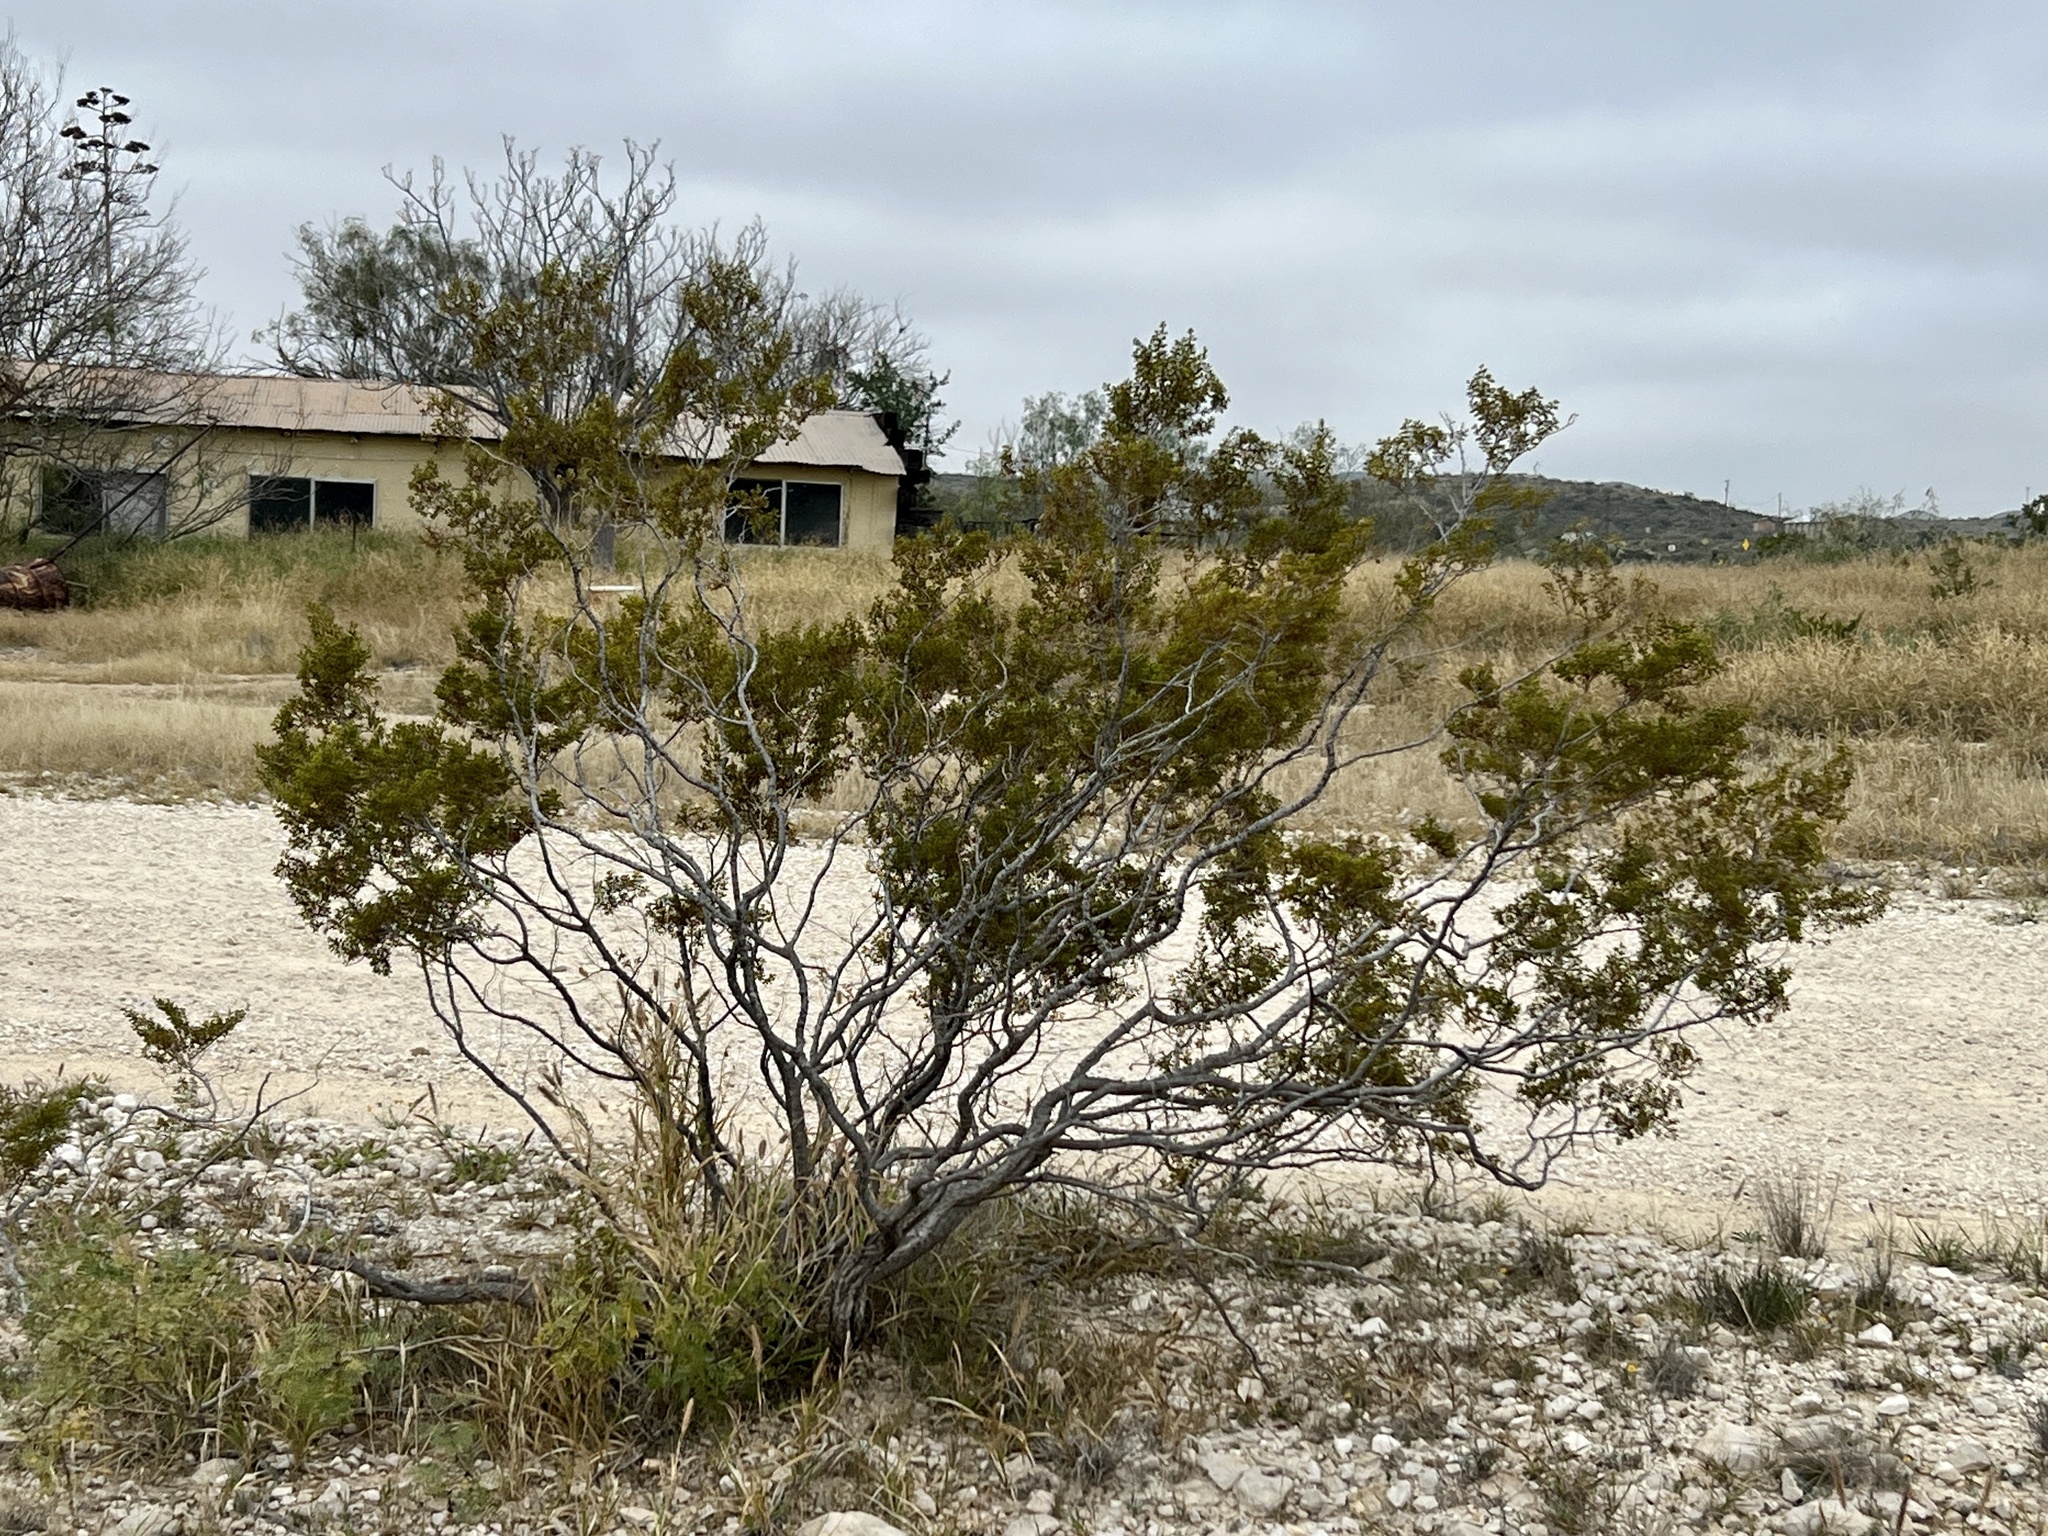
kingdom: Plantae
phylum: Tracheophyta
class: Magnoliopsida
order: Zygophyllales
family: Zygophyllaceae
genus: Larrea
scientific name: Larrea tridentata
